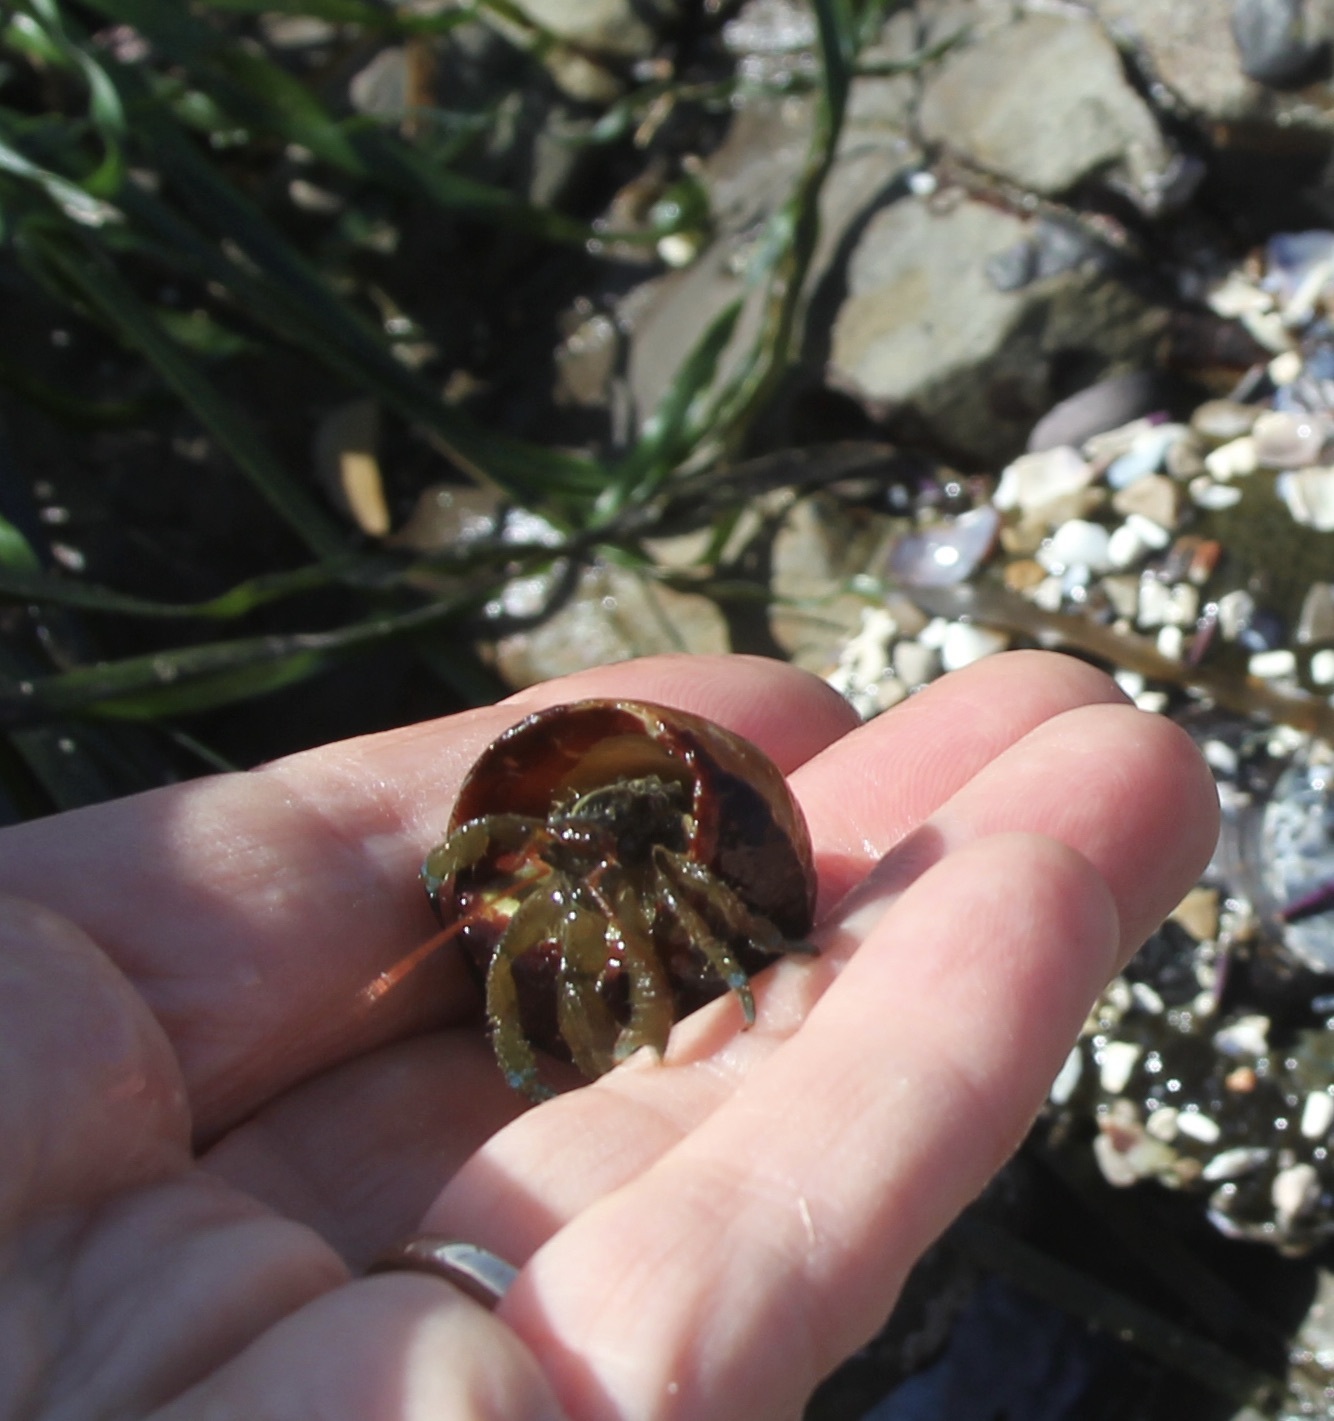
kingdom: Animalia
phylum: Arthropoda
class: Malacostraca
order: Decapoda
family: Paguridae
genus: Pagurus
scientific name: Pagurus samuelis
